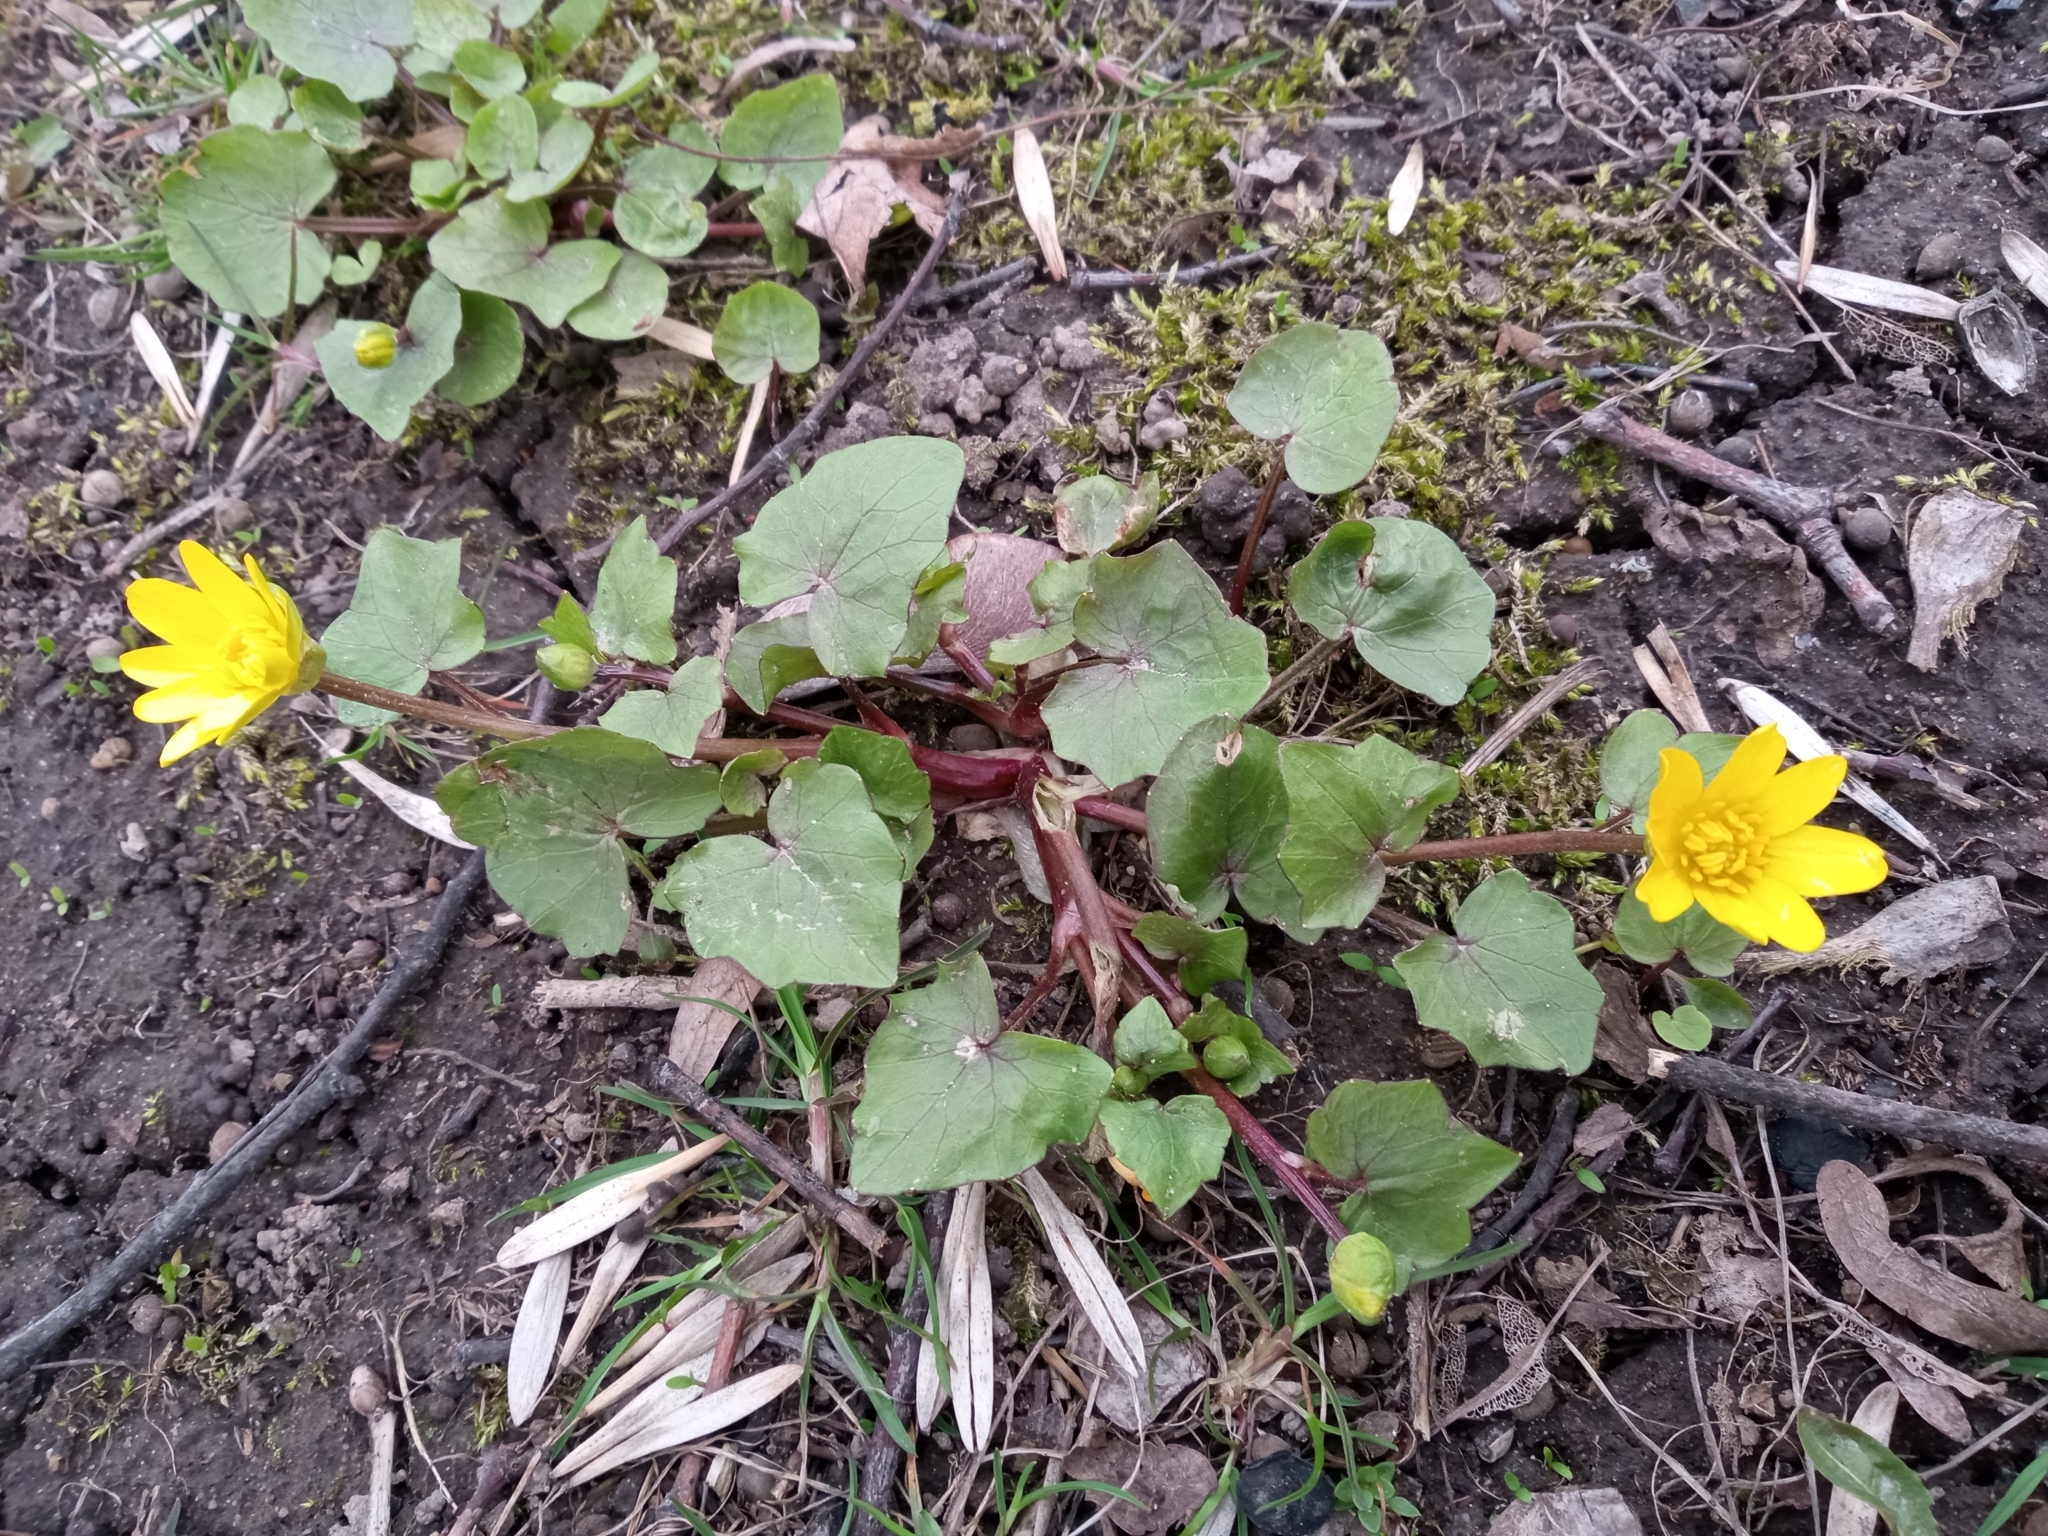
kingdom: Plantae
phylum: Tracheophyta
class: Magnoliopsida
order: Ranunculales
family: Ranunculaceae
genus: Ficaria
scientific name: Ficaria verna
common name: Lesser celandine
